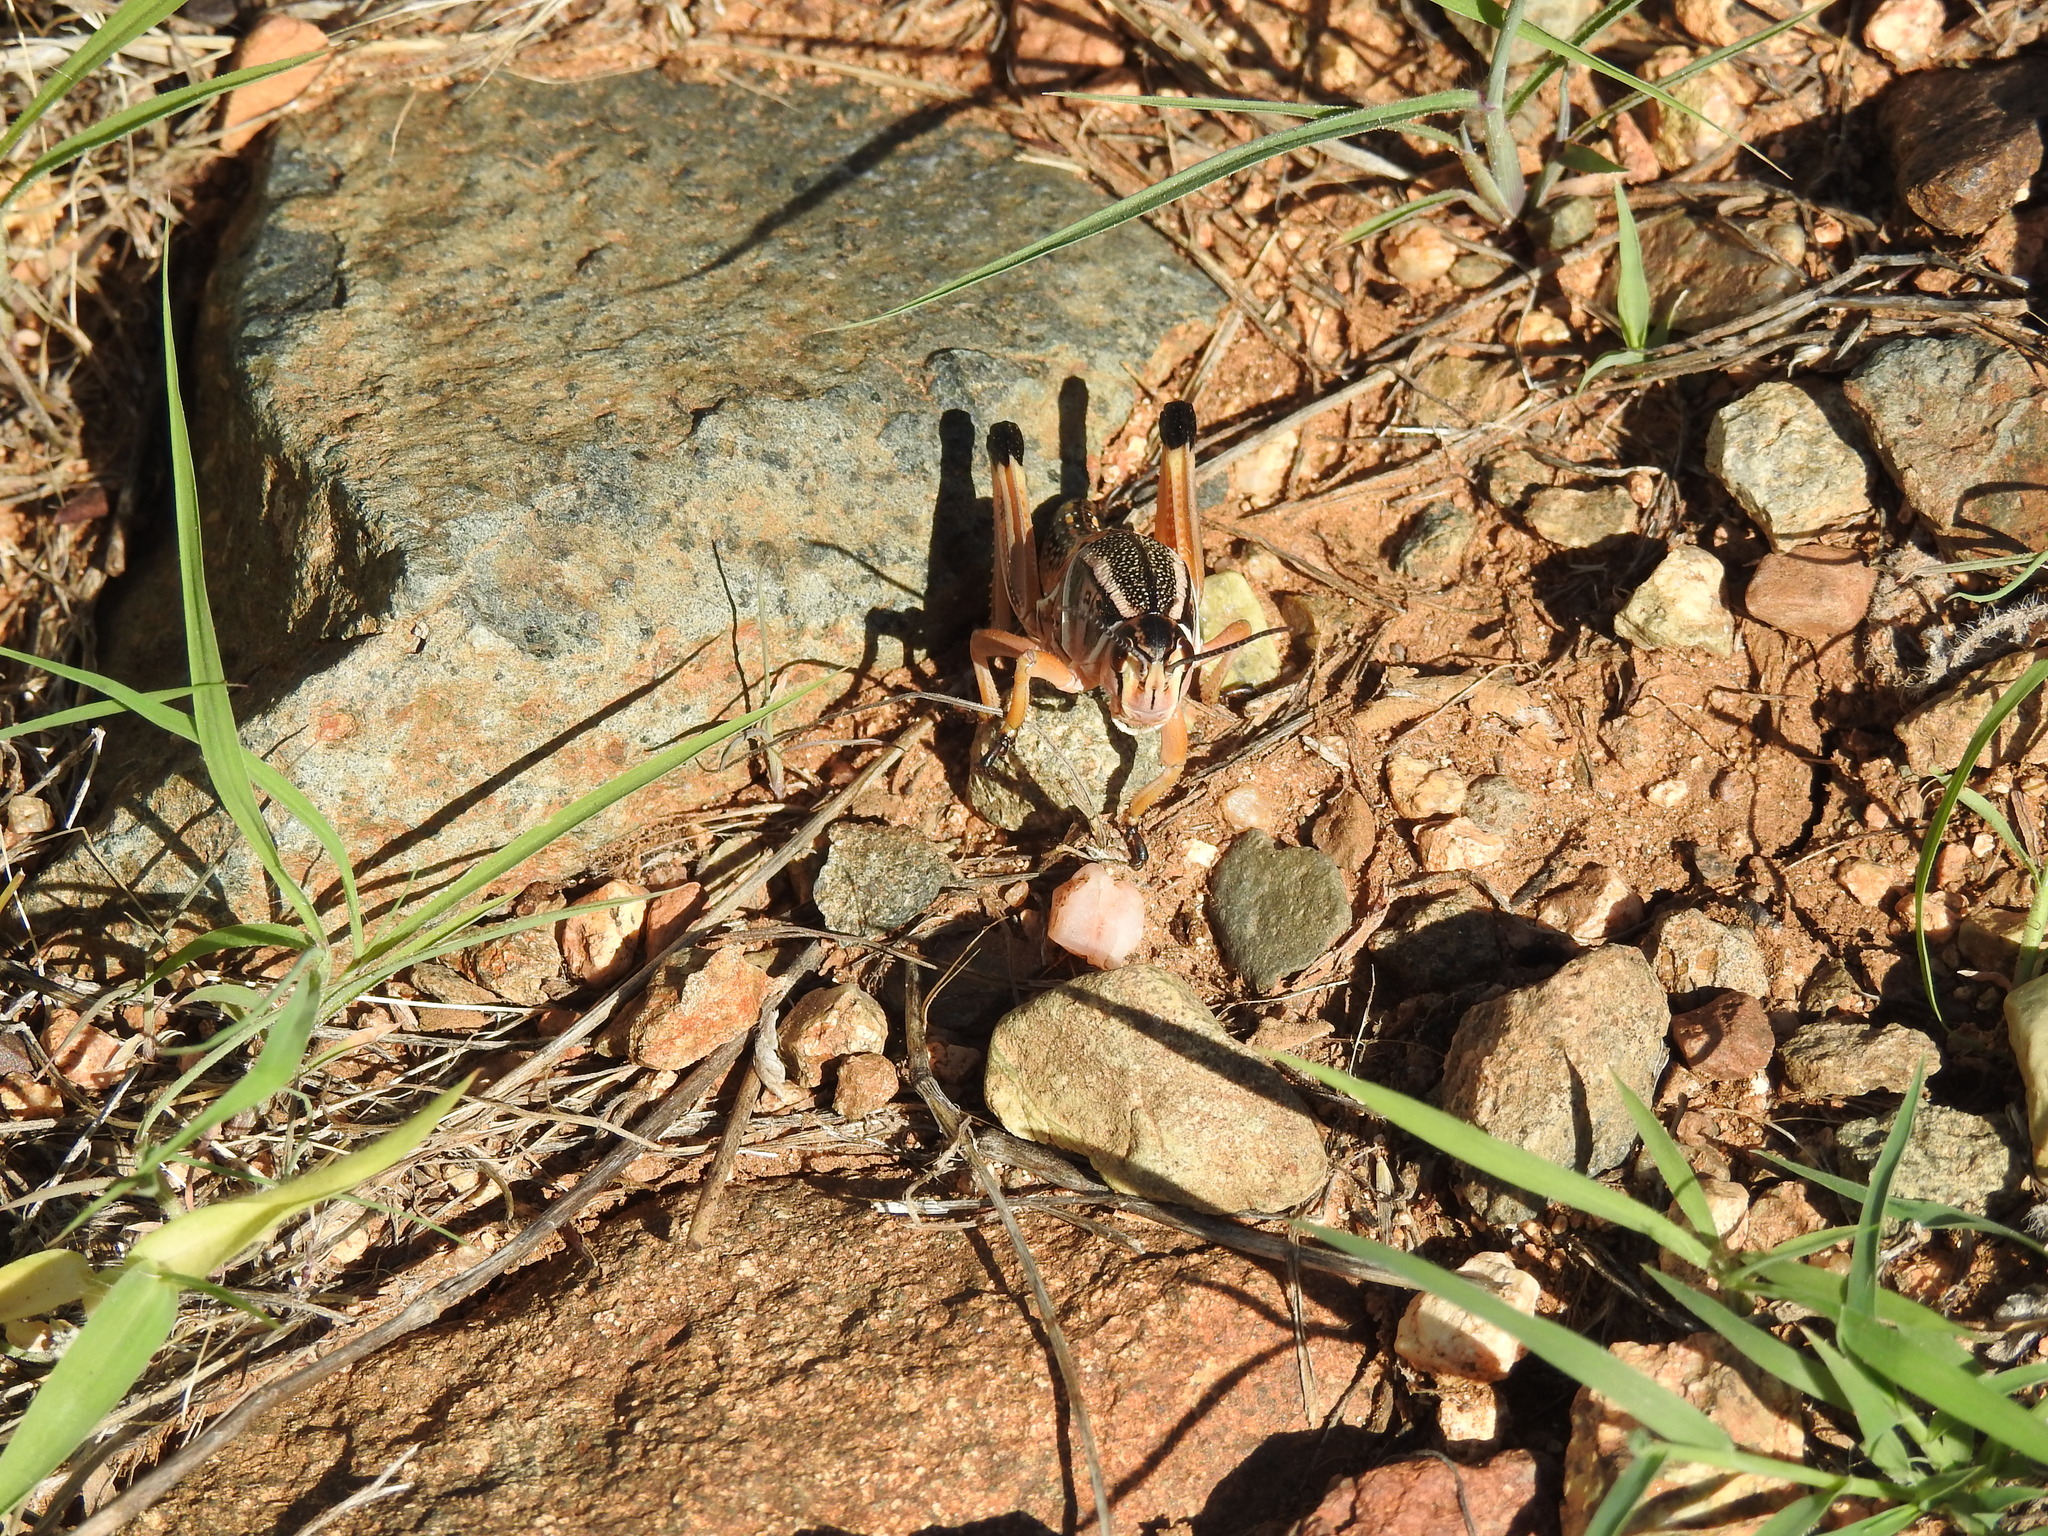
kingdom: Animalia
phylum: Arthropoda
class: Insecta
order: Orthoptera
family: Romaleidae
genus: Brachystola
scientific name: Brachystola magna
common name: Plains lubber grasshopper
